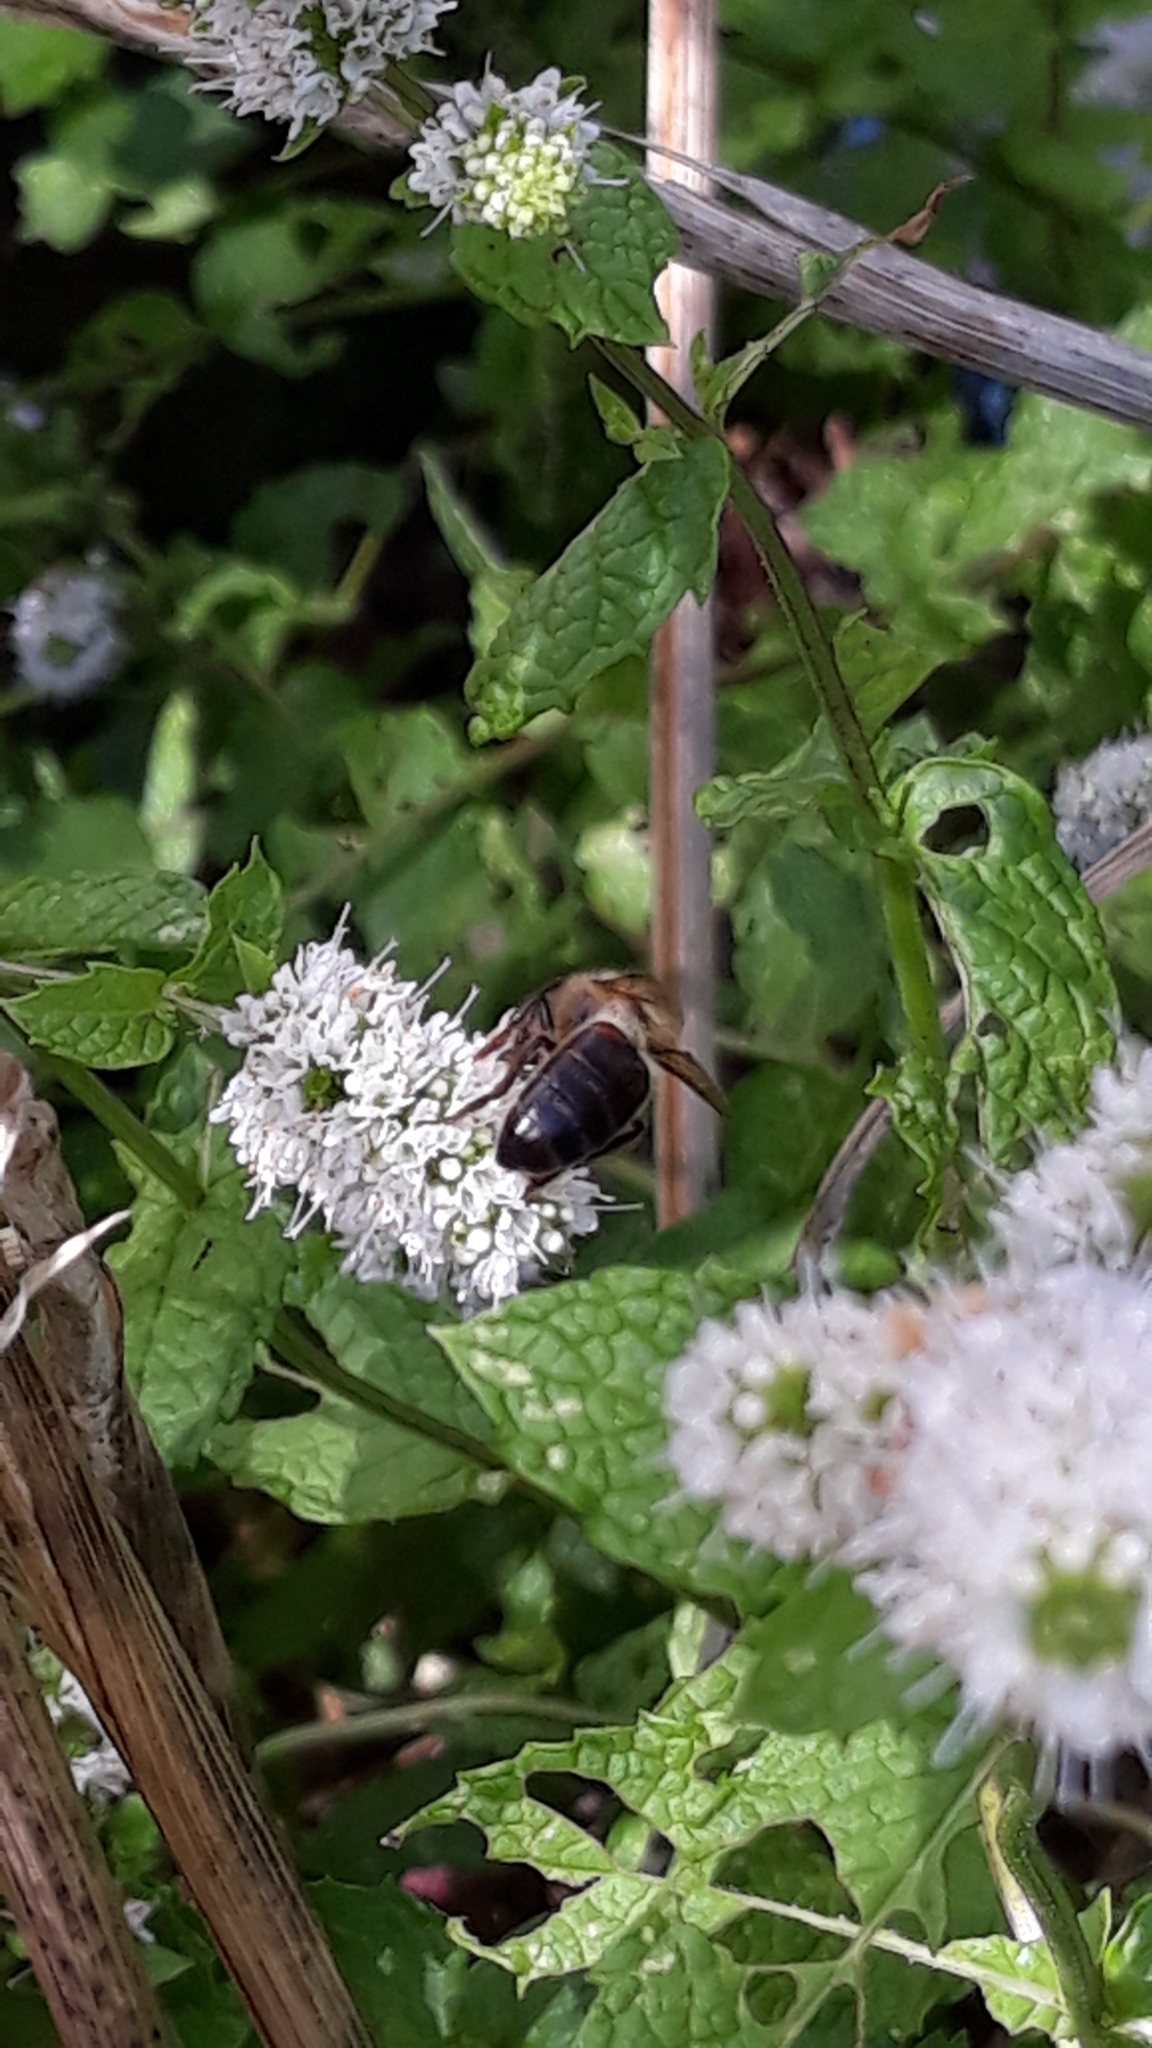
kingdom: Animalia
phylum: Arthropoda
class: Insecta
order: Hymenoptera
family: Apidae
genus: Apis
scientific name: Apis mellifera
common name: Honey bee
